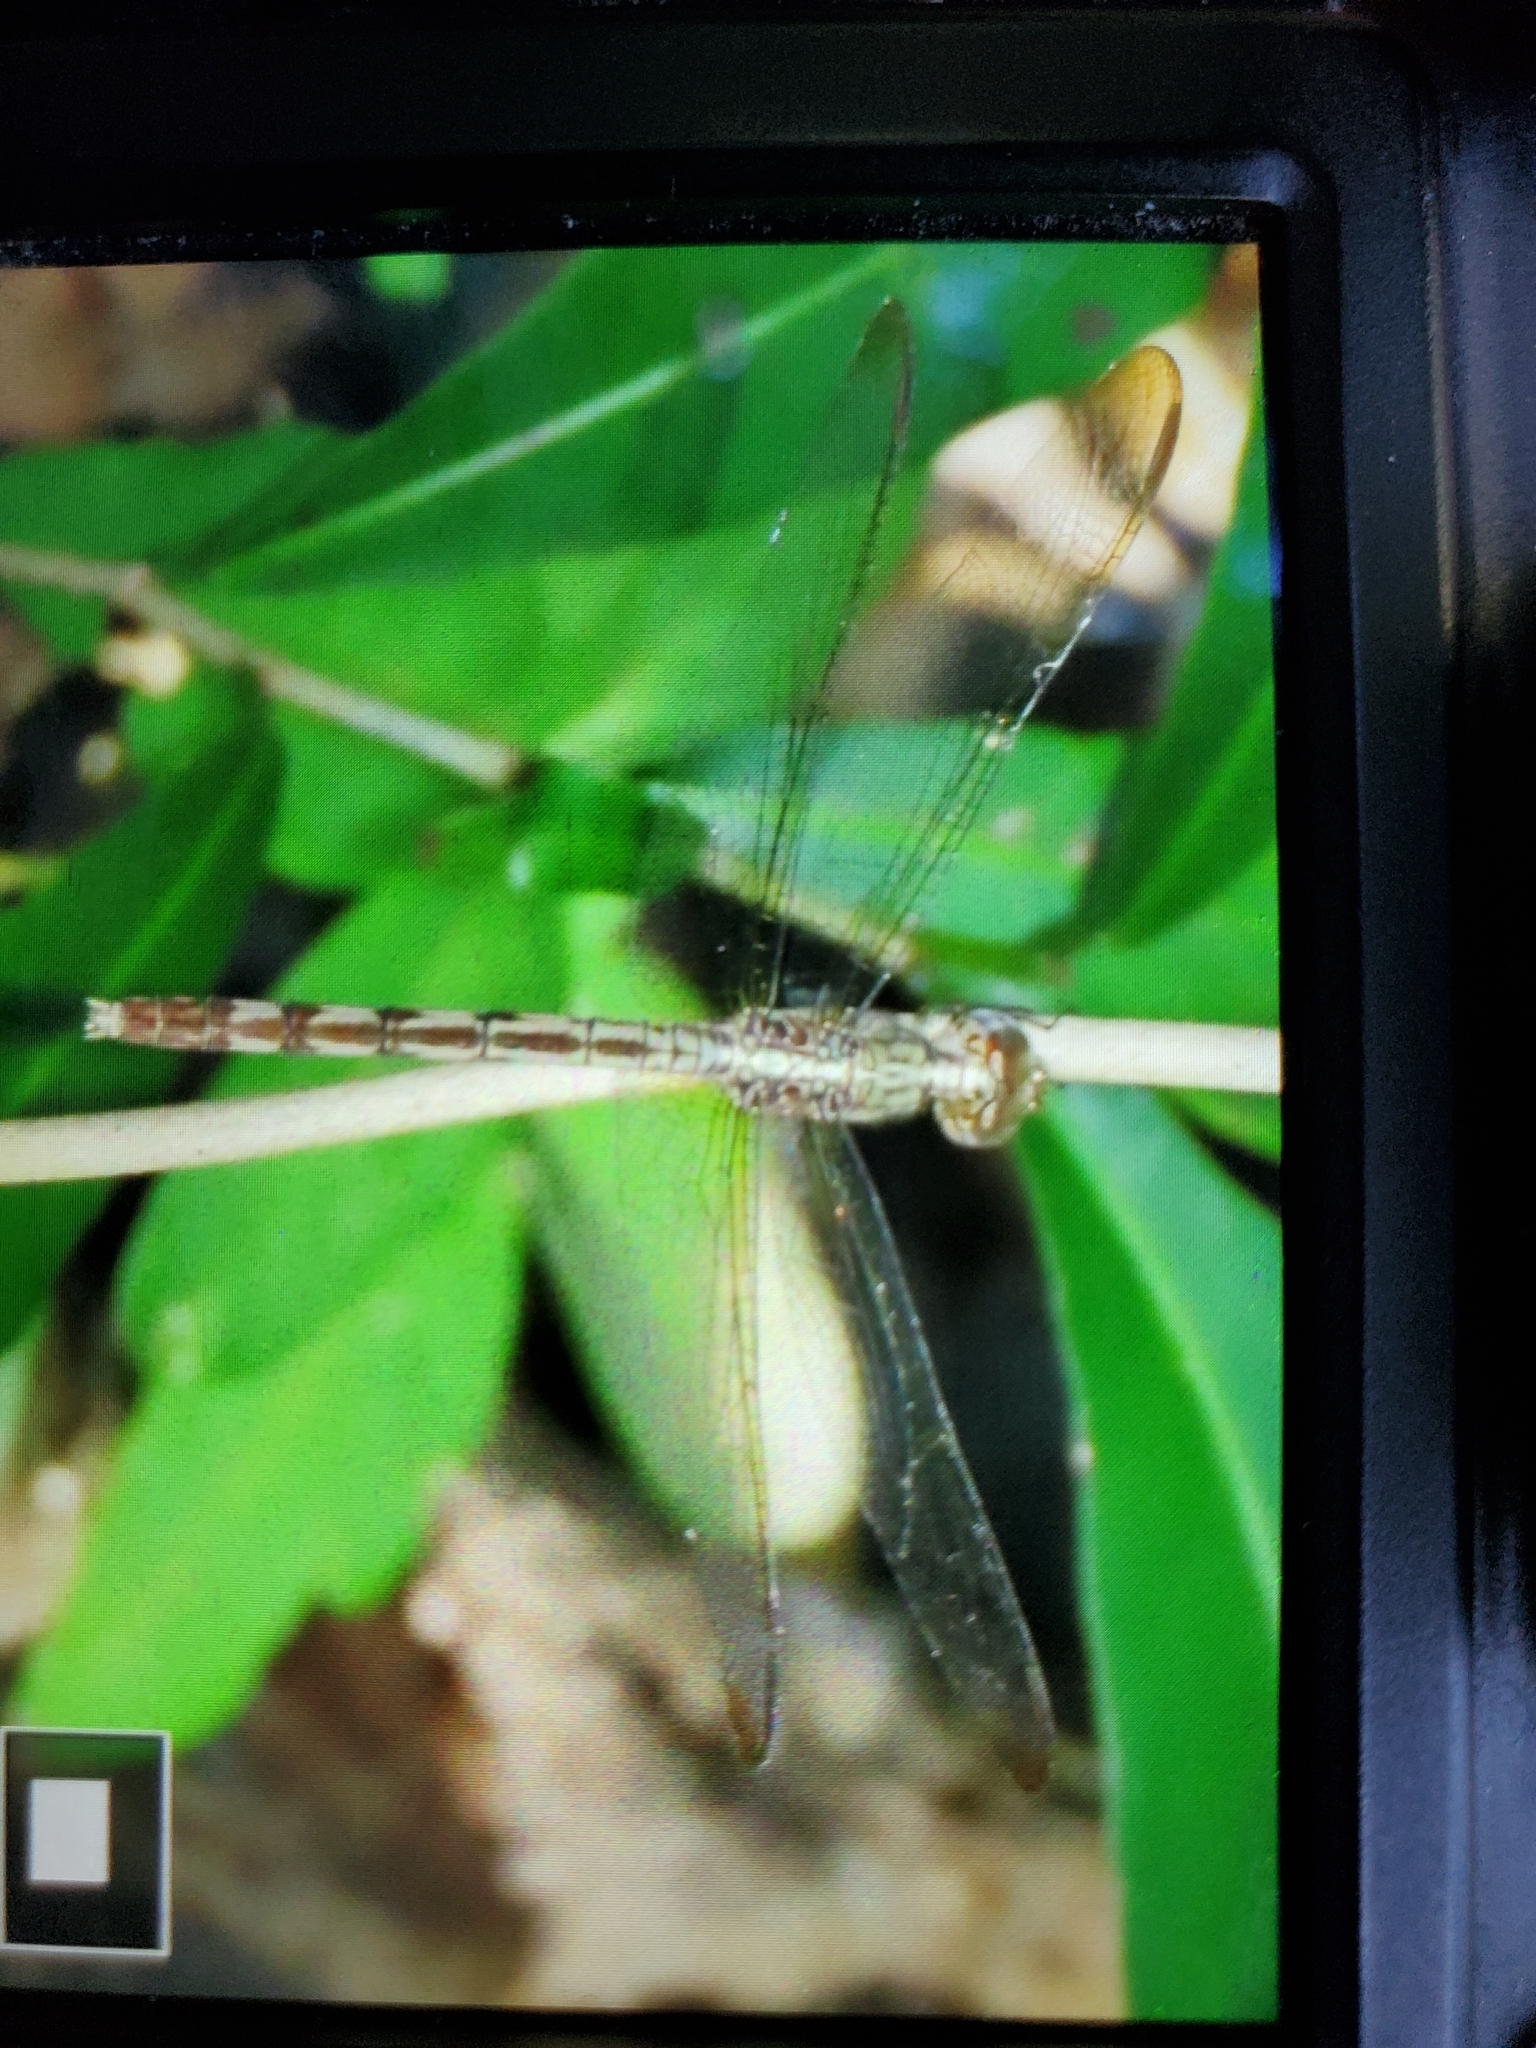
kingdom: Animalia
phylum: Arthropoda
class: Insecta
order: Odonata
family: Libellulidae
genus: Erythrodiplax
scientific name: Erythrodiplax umbrata
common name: Band-winged dragonlet
